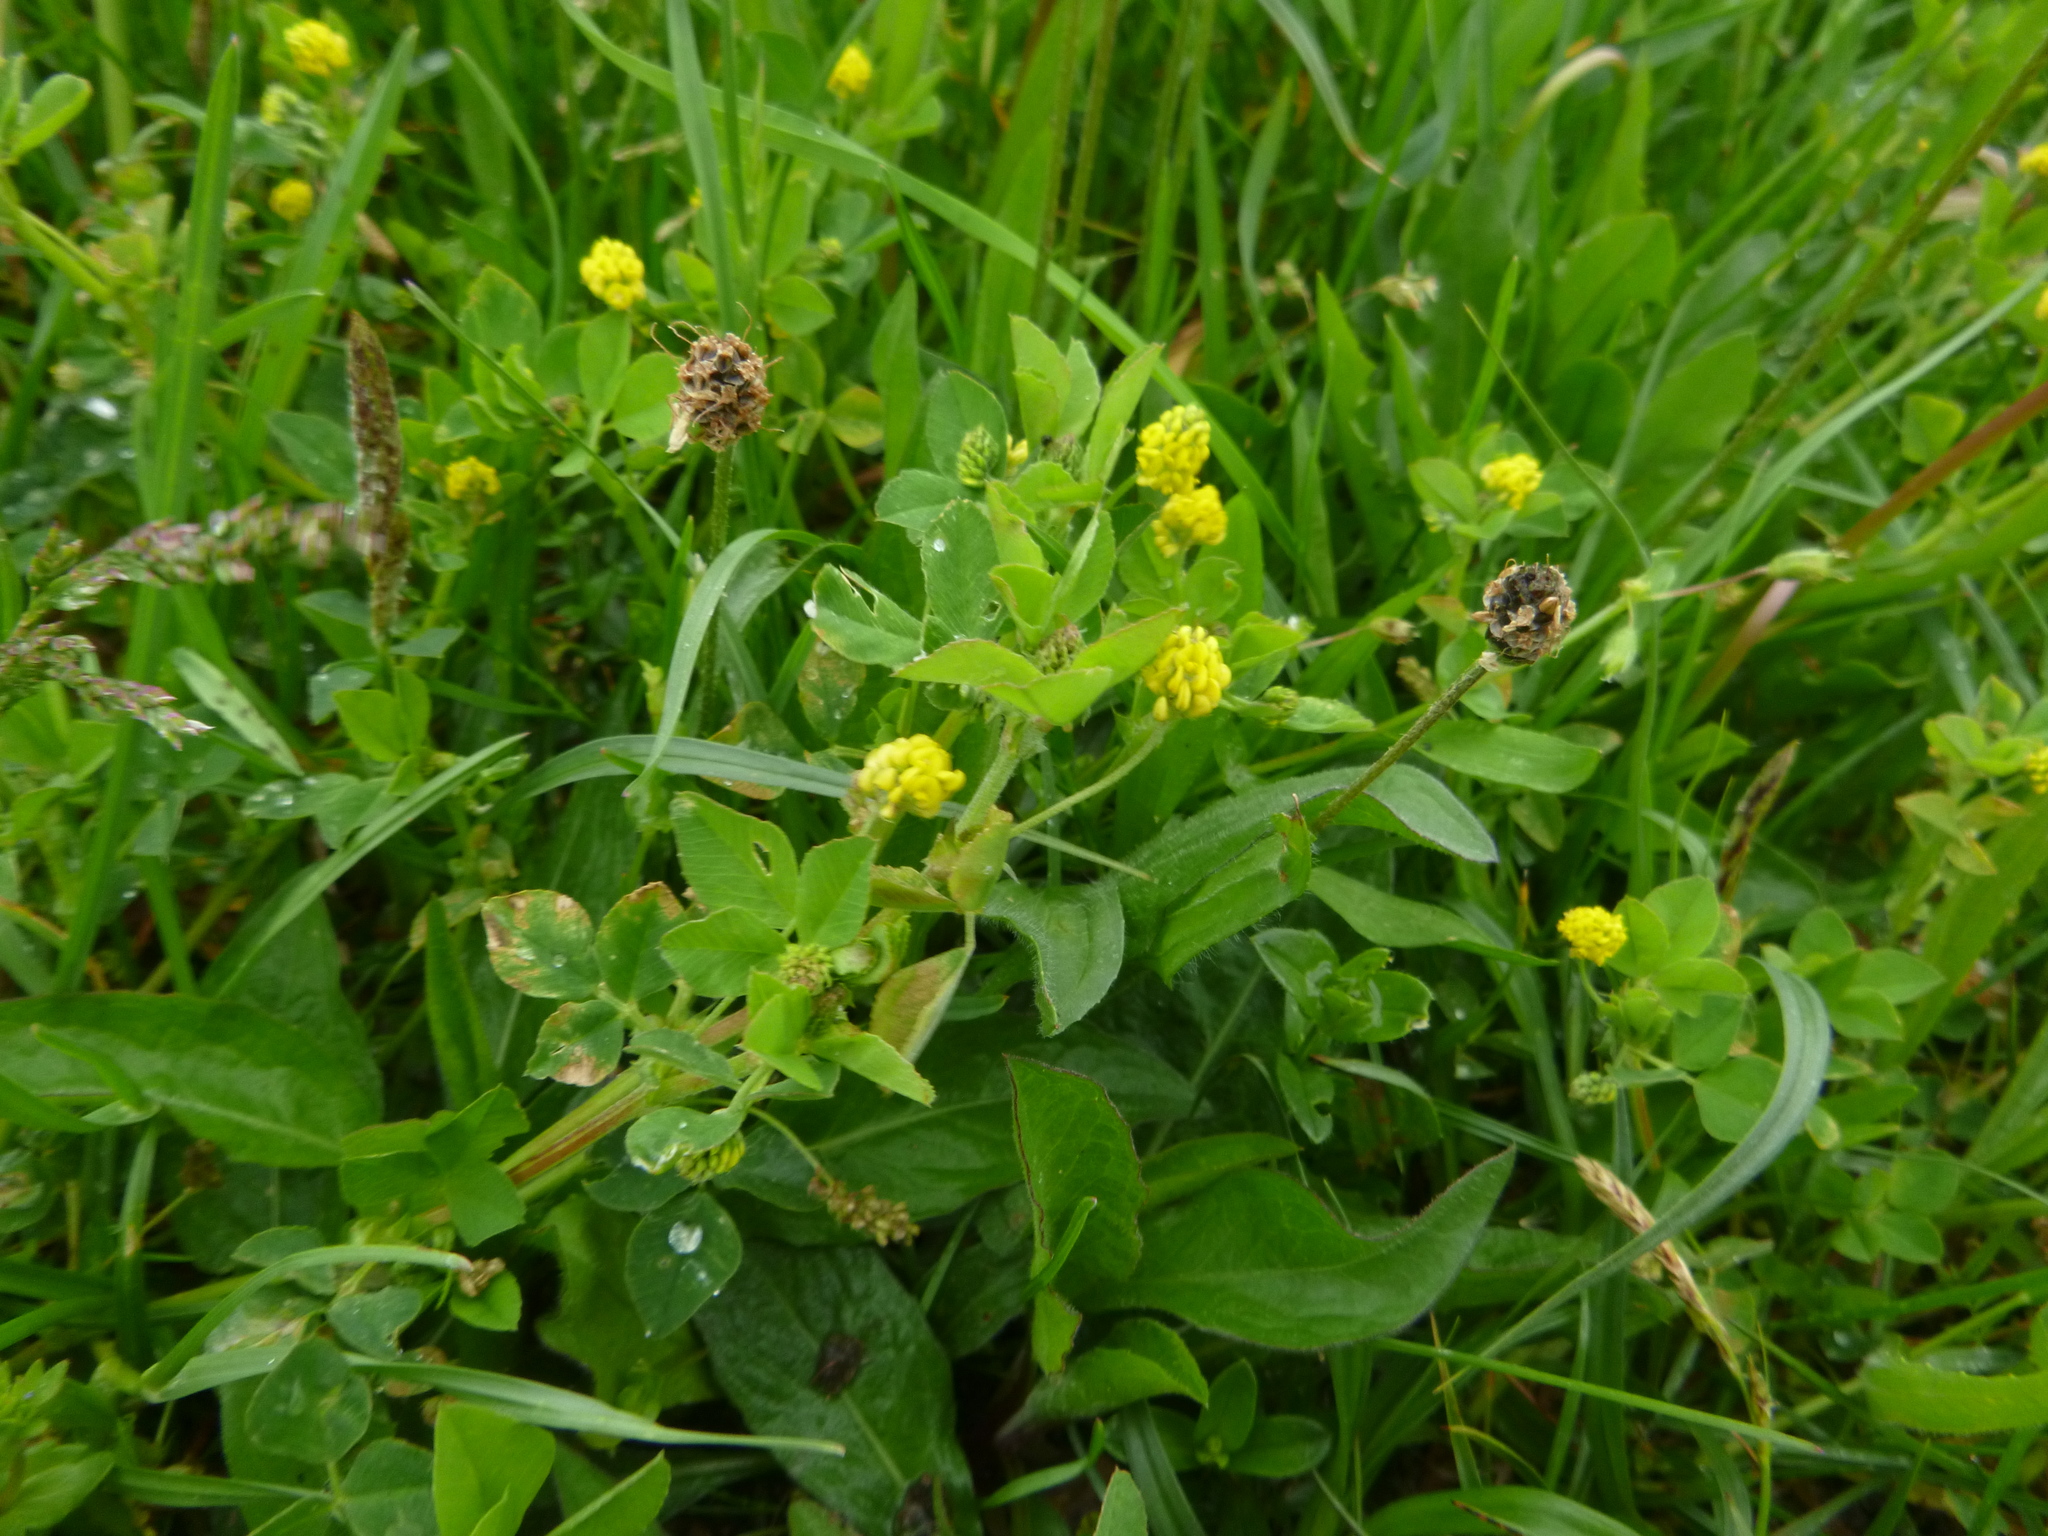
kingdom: Plantae
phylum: Tracheophyta
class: Magnoliopsida
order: Fabales
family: Fabaceae
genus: Medicago
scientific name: Medicago lupulina
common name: Black medick
